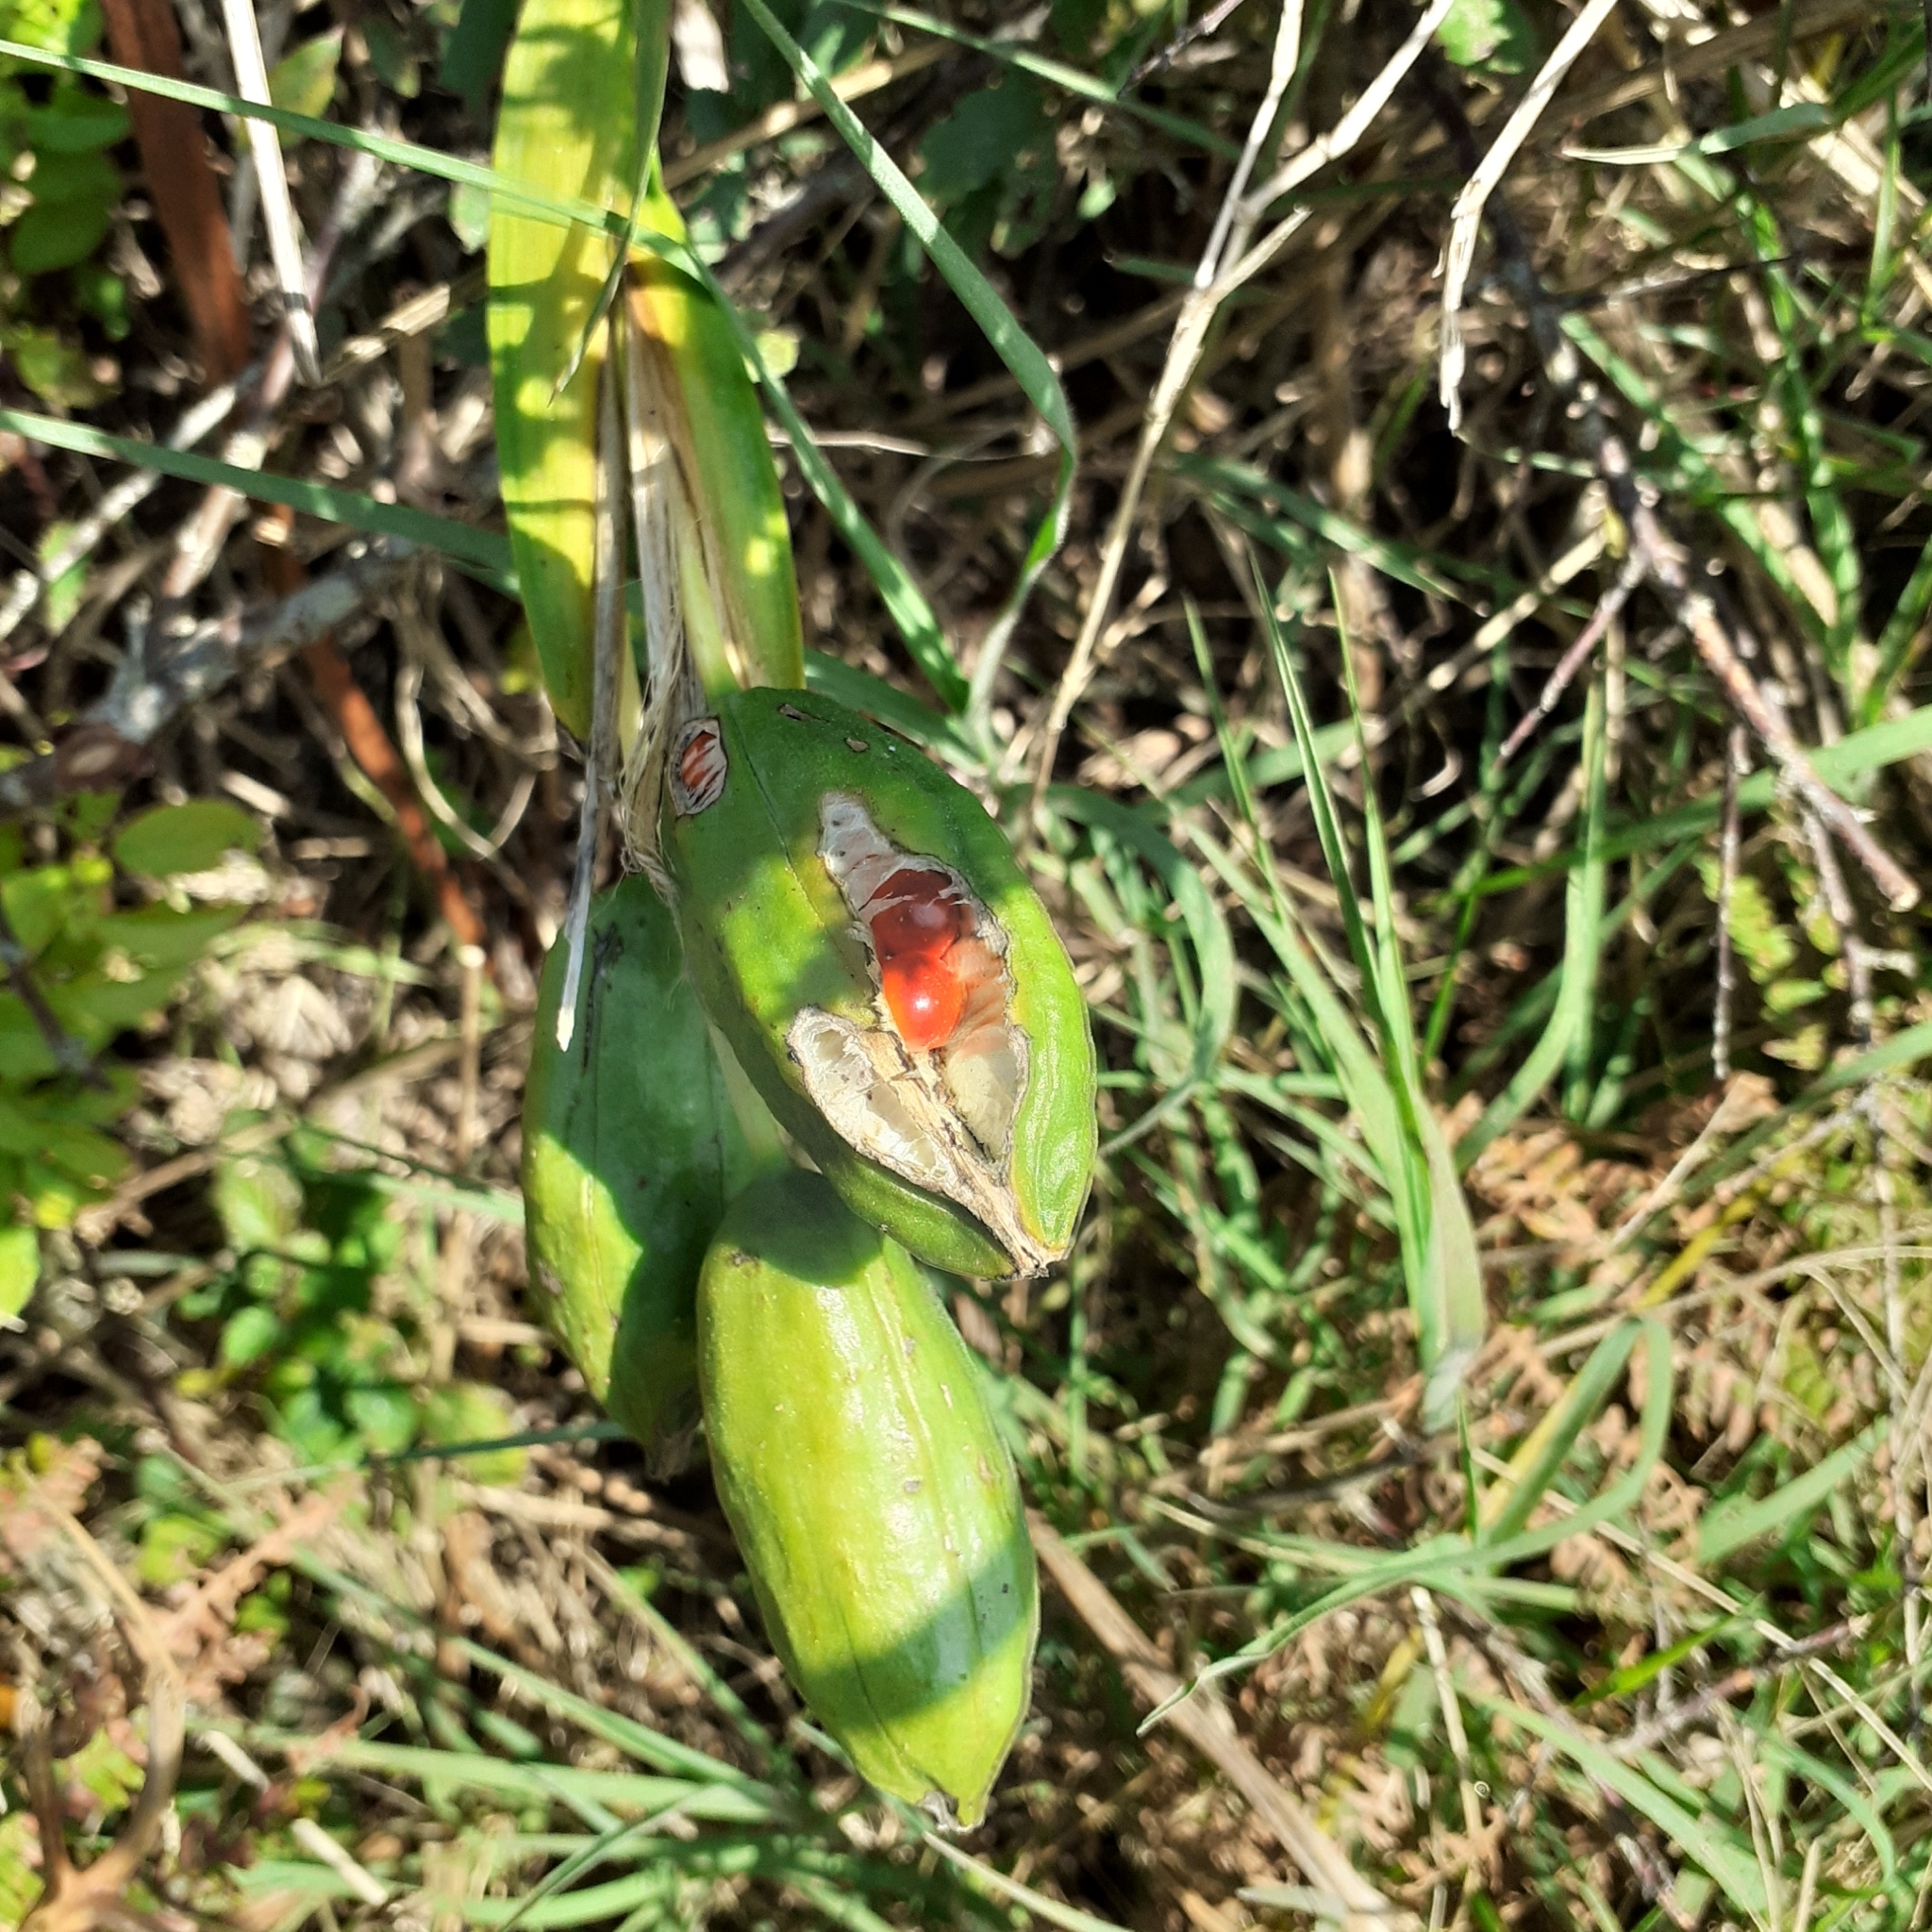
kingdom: Plantae
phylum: Tracheophyta
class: Liliopsida
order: Asparagales
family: Iridaceae
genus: Iris
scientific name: Iris foetidissima
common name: Stinking iris
